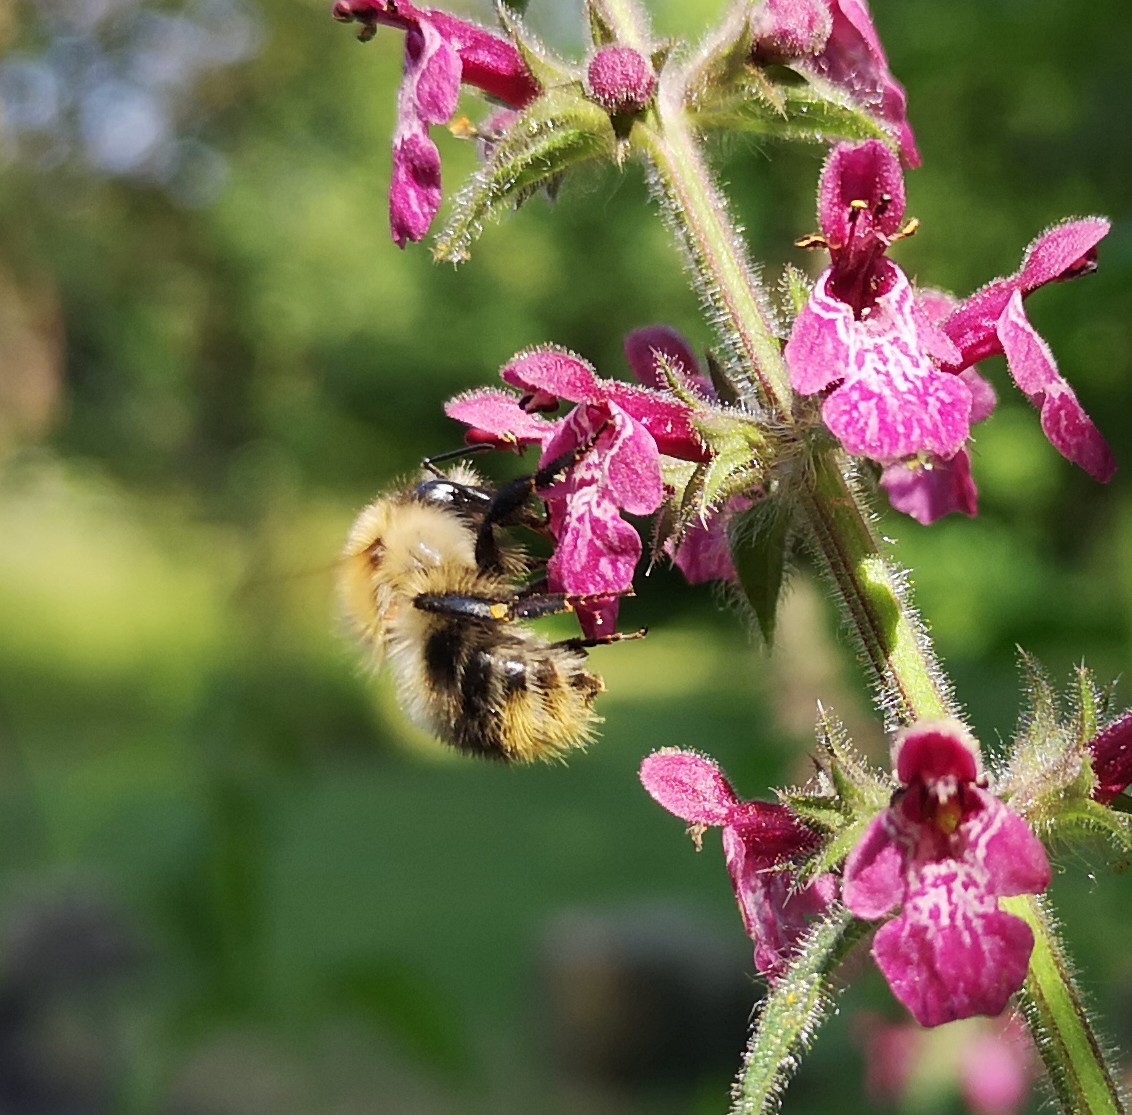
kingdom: Animalia
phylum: Arthropoda
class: Insecta
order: Hymenoptera
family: Apidae
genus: Bombus
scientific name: Bombus pascuorum
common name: Common carder bee
